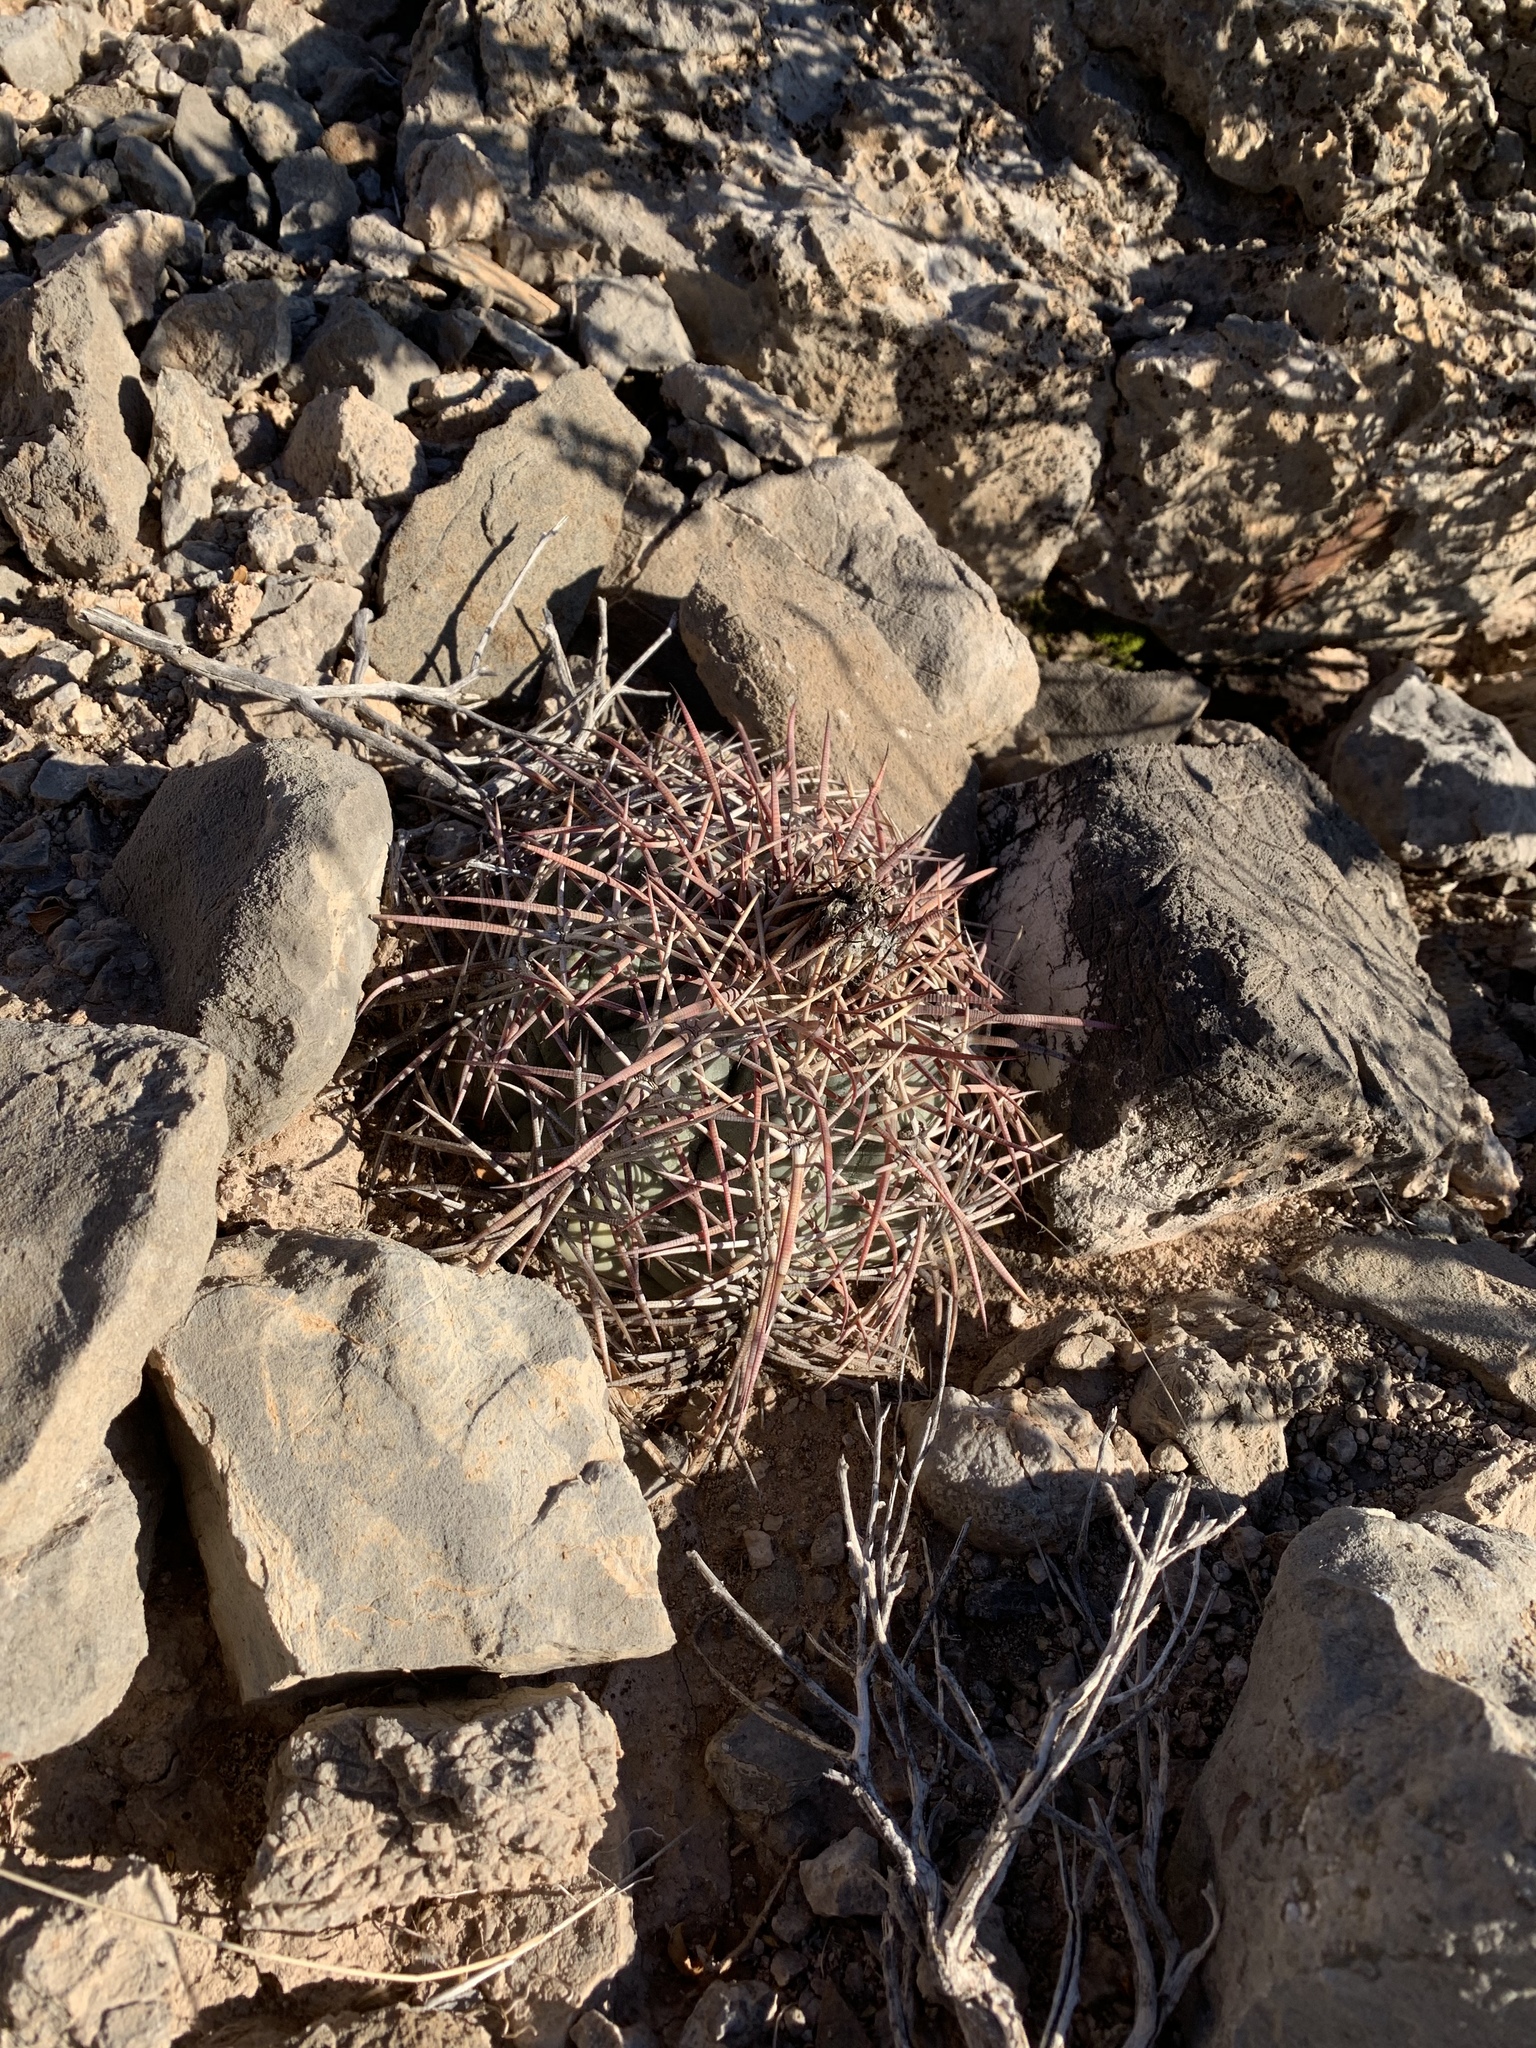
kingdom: Plantae
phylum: Tracheophyta
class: Magnoliopsida
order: Caryophyllales
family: Cactaceae
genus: Echinocactus
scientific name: Echinocactus horizonthalonius
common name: Devilshead
